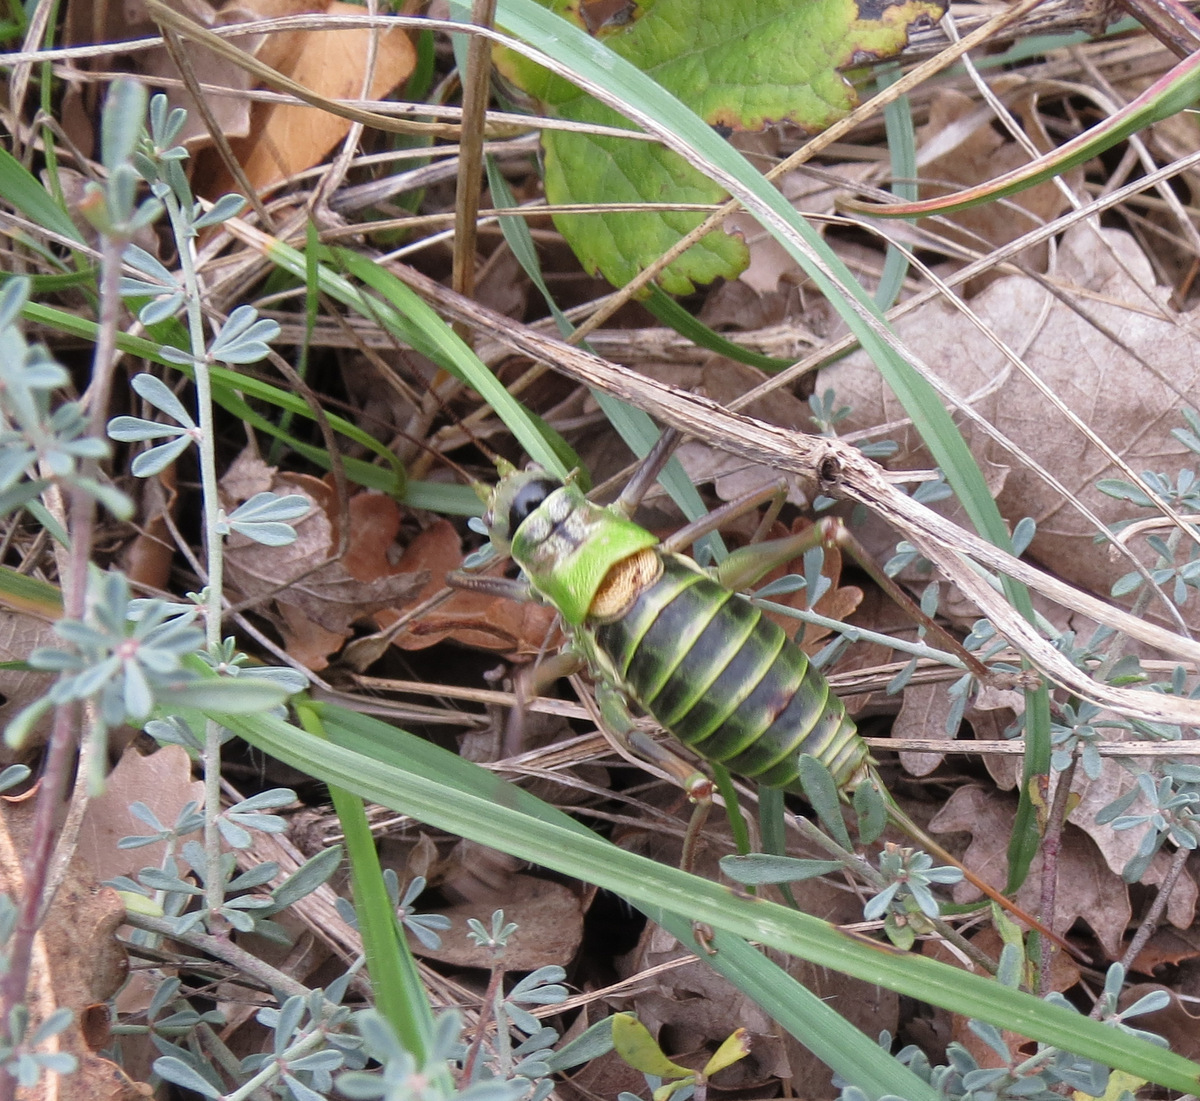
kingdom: Animalia
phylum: Arthropoda
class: Insecta
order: Orthoptera
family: Tettigoniidae
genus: Ephippiger
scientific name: Ephippiger diurnus
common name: Western saddle bush-cricket
